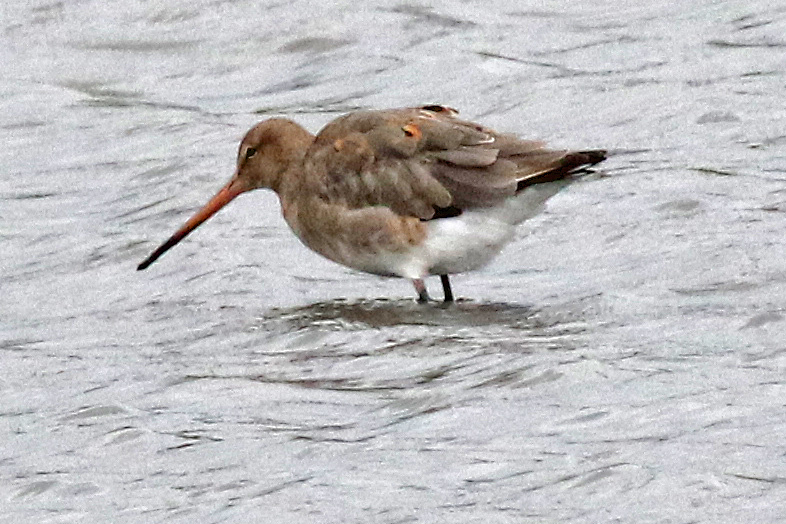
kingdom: Animalia
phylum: Chordata
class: Aves
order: Charadriiformes
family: Scolopacidae
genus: Limosa
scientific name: Limosa limosa
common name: Black-tailed godwit
